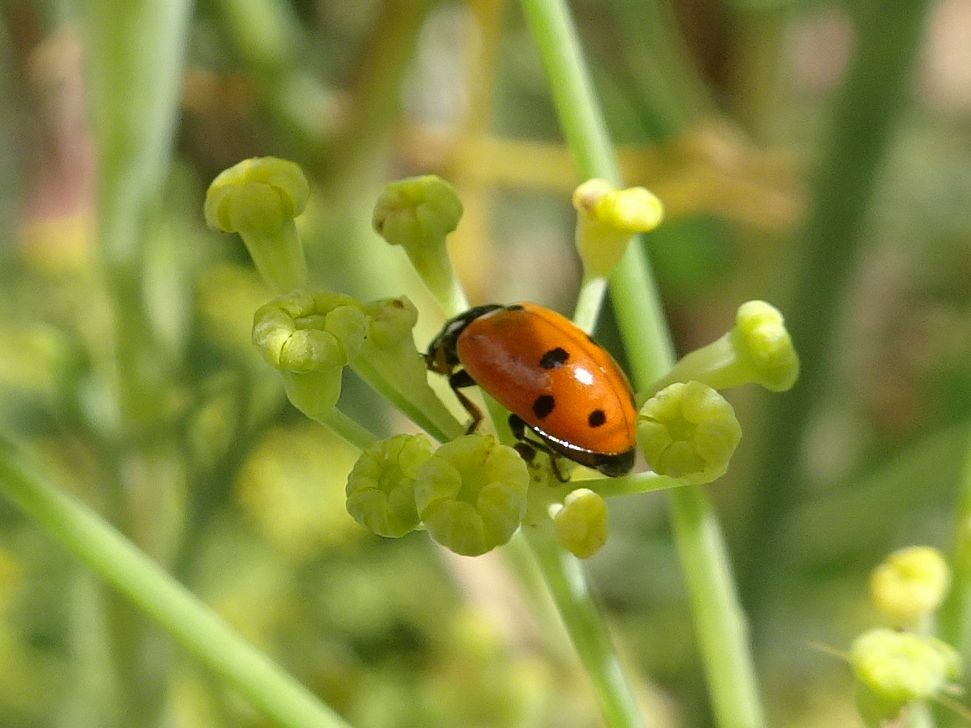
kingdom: Animalia
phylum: Arthropoda
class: Insecta
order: Coleoptera
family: Coccinellidae
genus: Hippodamia
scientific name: Hippodamia variegata
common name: Ladybird beetle
